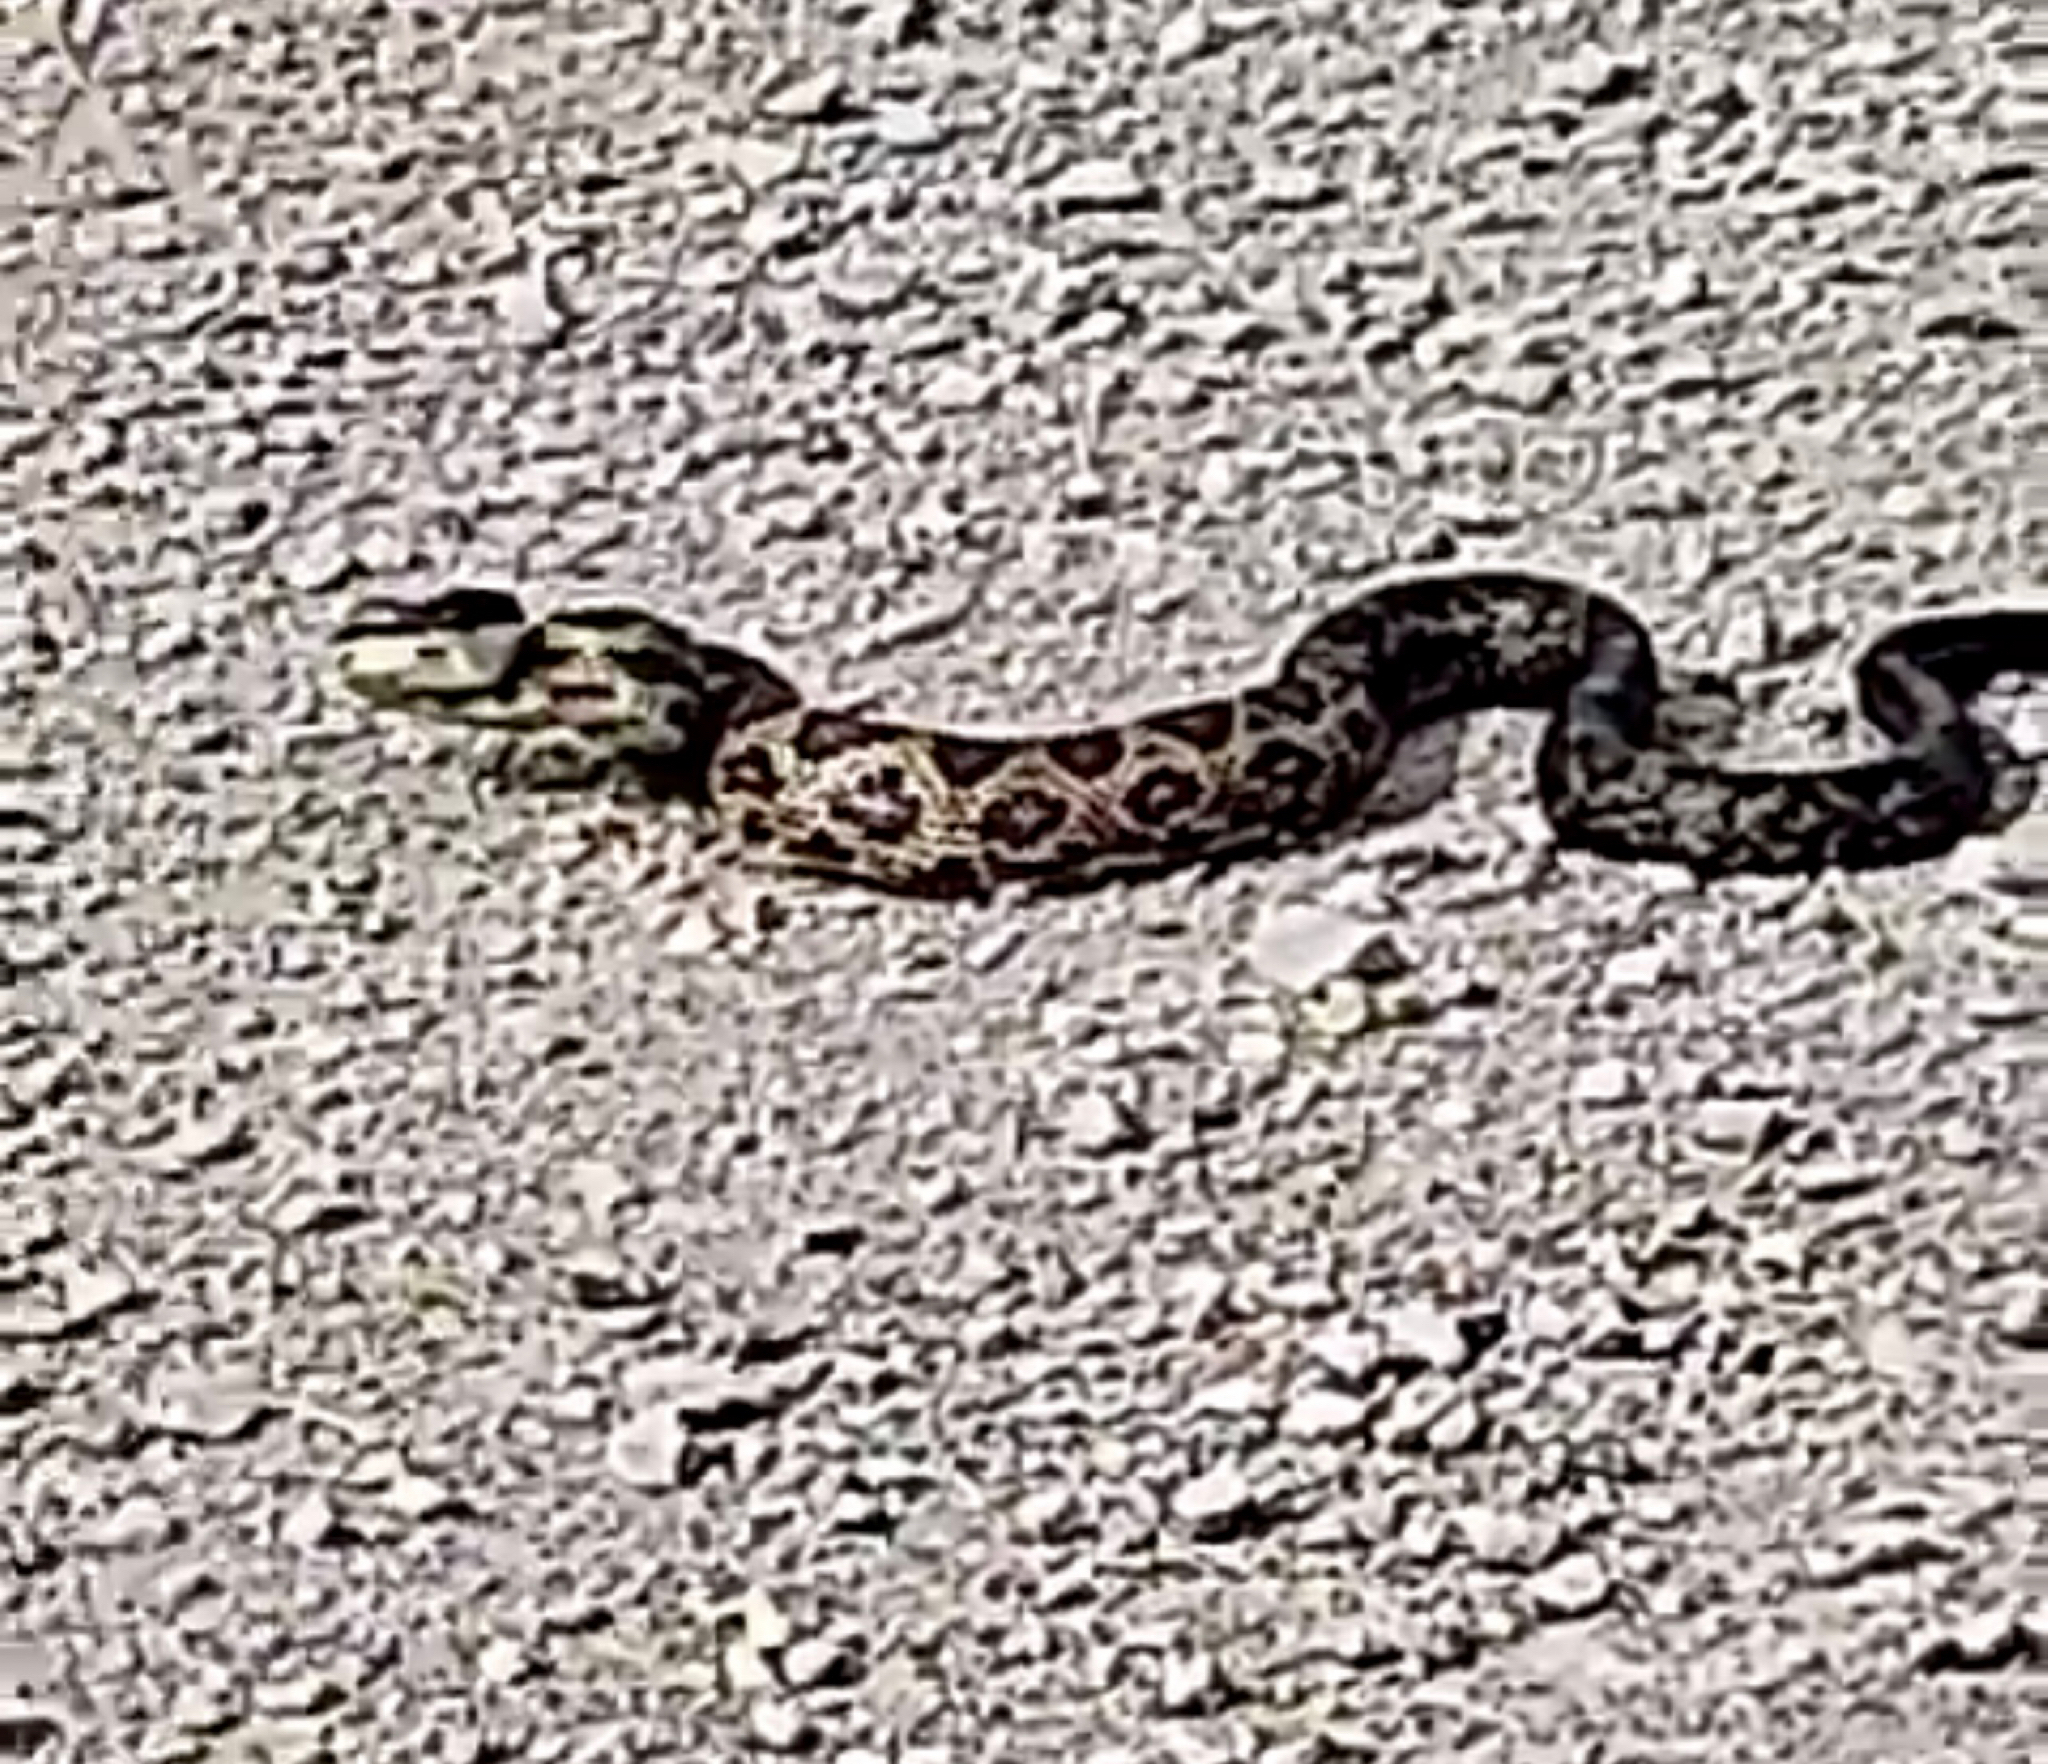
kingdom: Animalia
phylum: Chordata
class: Squamata
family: Colubridae
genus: Pantherophis
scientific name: Pantherophis spiloides
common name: Gray rat snake
